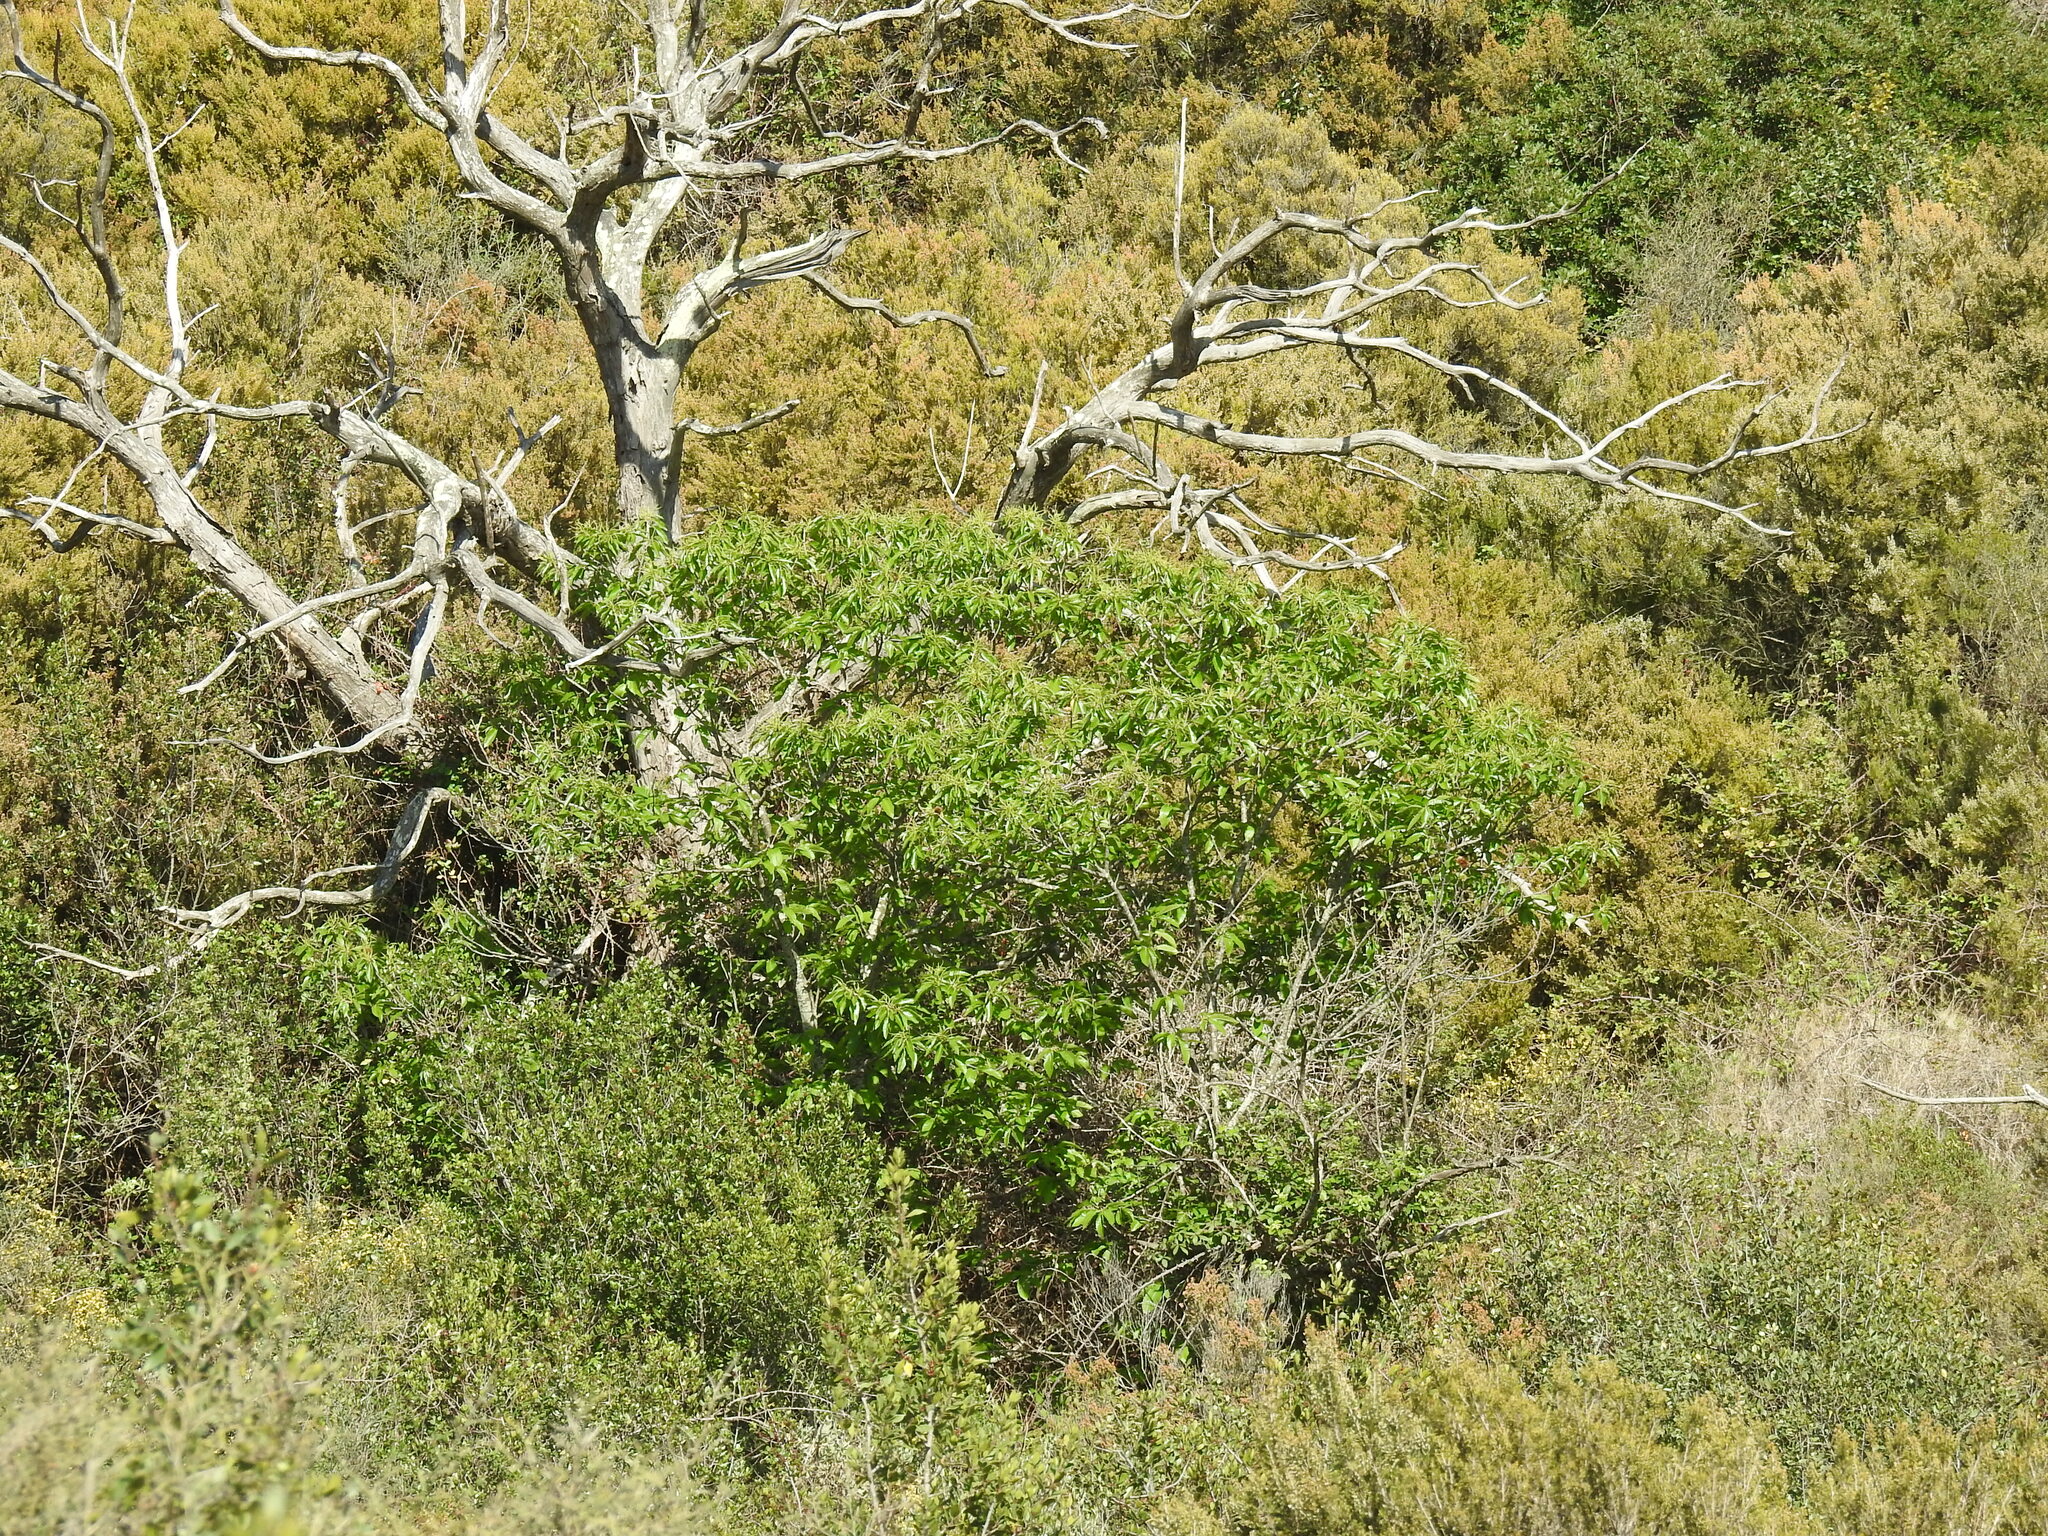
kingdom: Plantae
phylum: Tracheophyta
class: Magnoliopsida
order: Fagales
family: Fagaceae
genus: Castanea
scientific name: Castanea sativa
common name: Sweet chestnut
